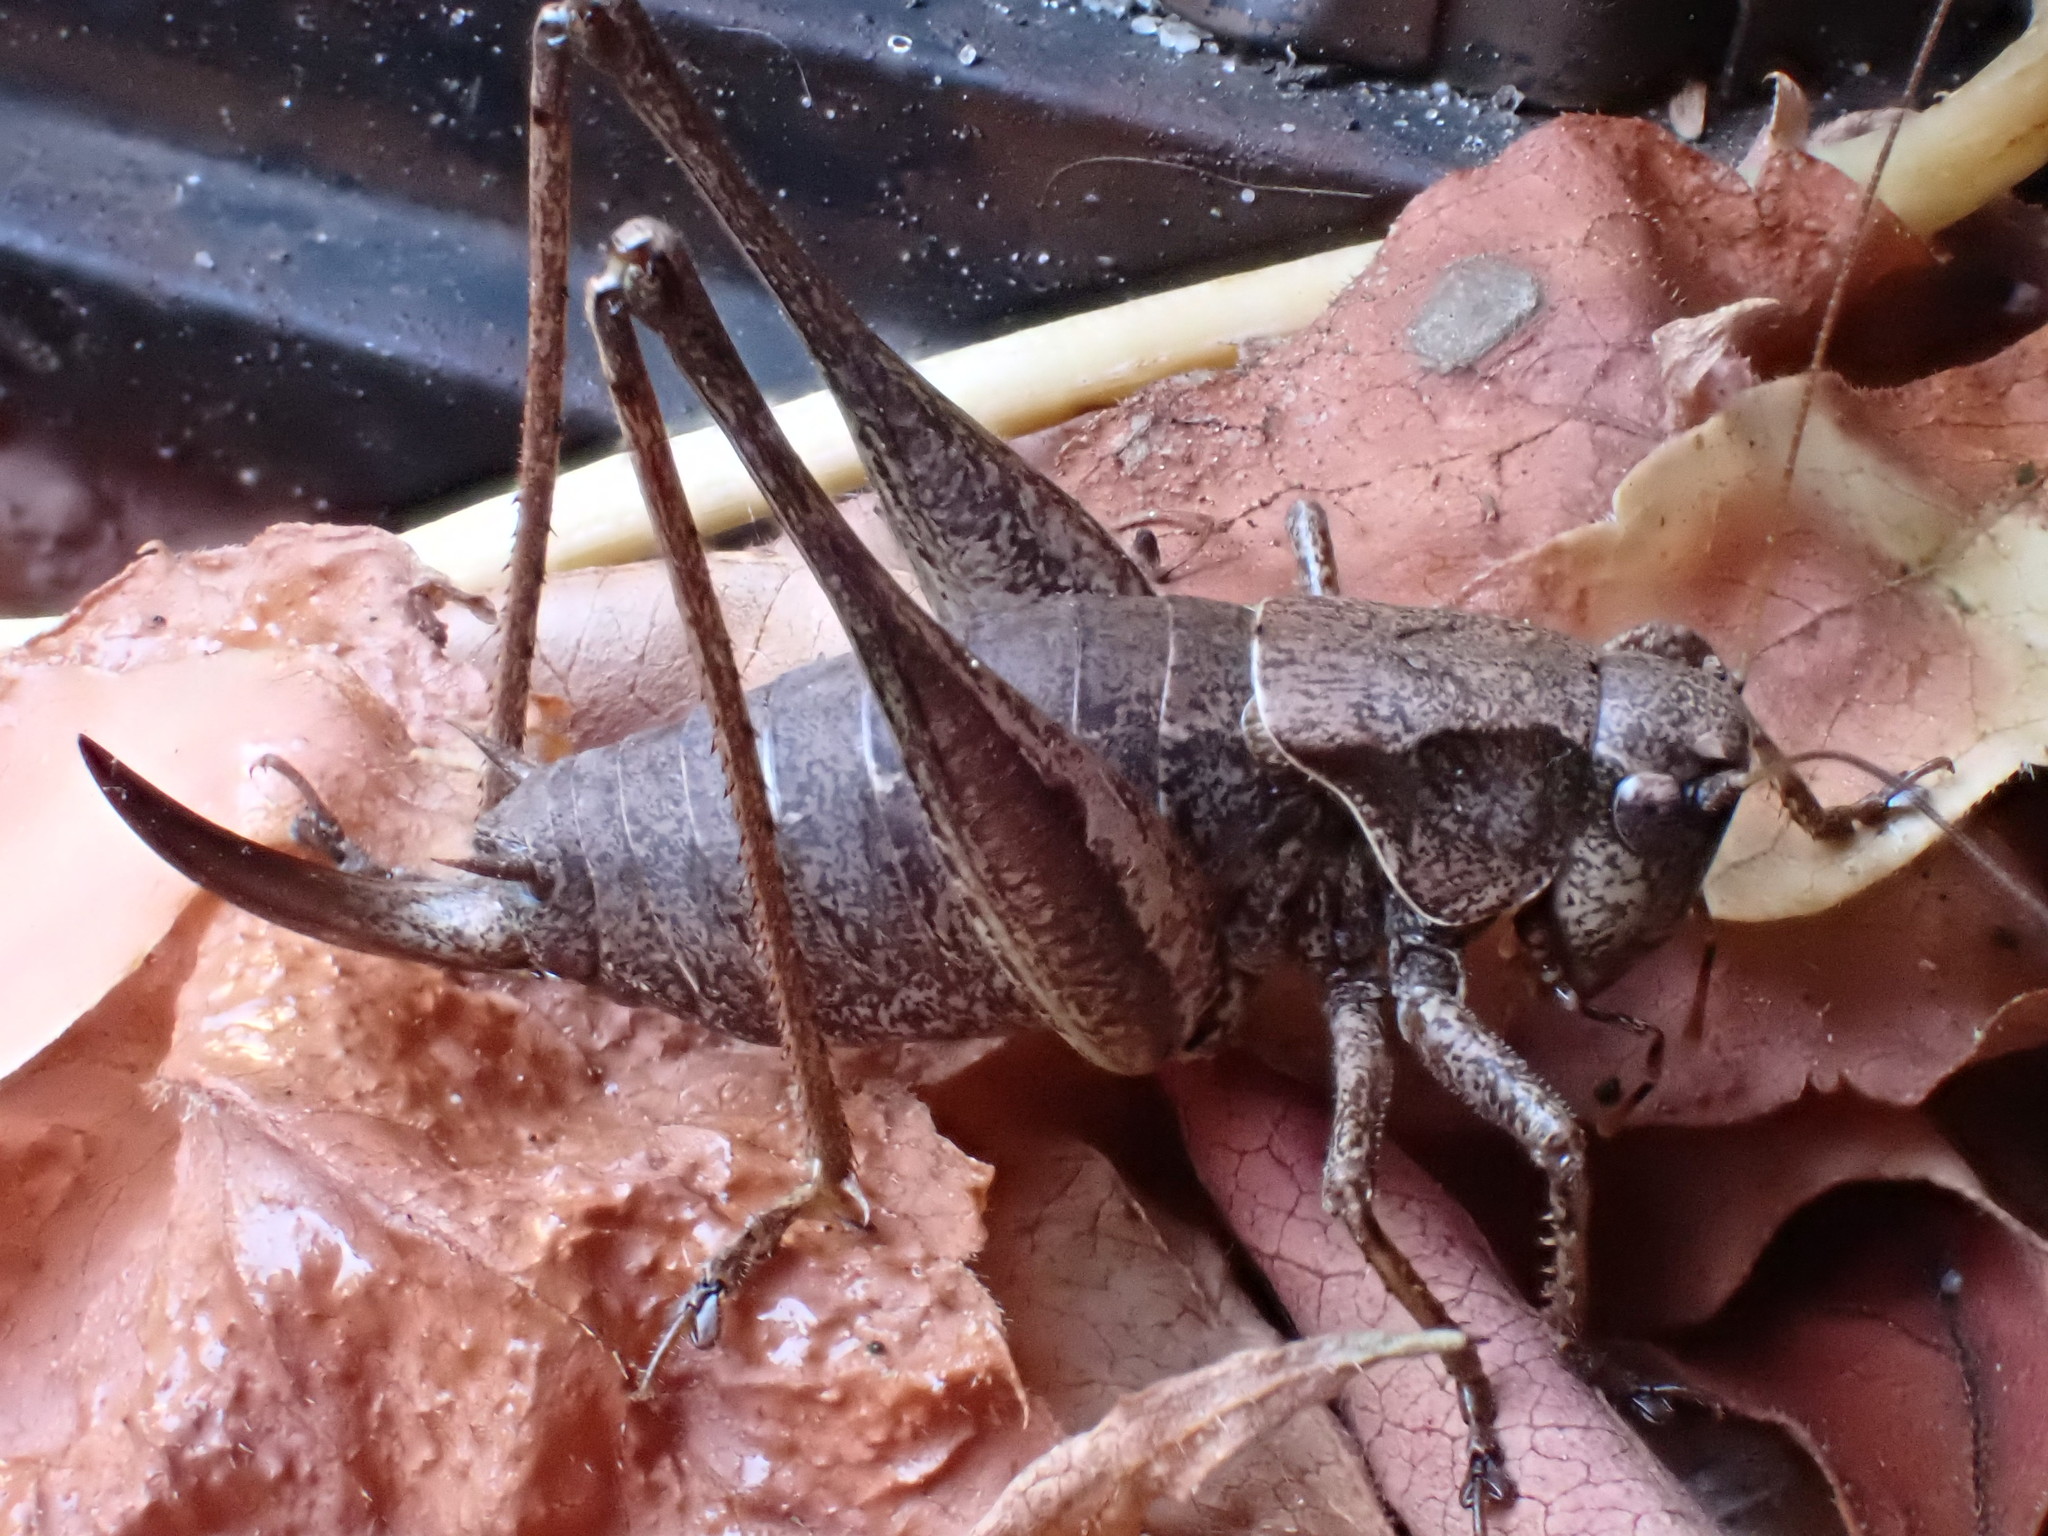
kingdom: Animalia
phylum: Arthropoda
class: Insecta
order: Orthoptera
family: Tettigoniidae
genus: Pholidoptera
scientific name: Pholidoptera griseoaptera
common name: Dark bush-cricket
